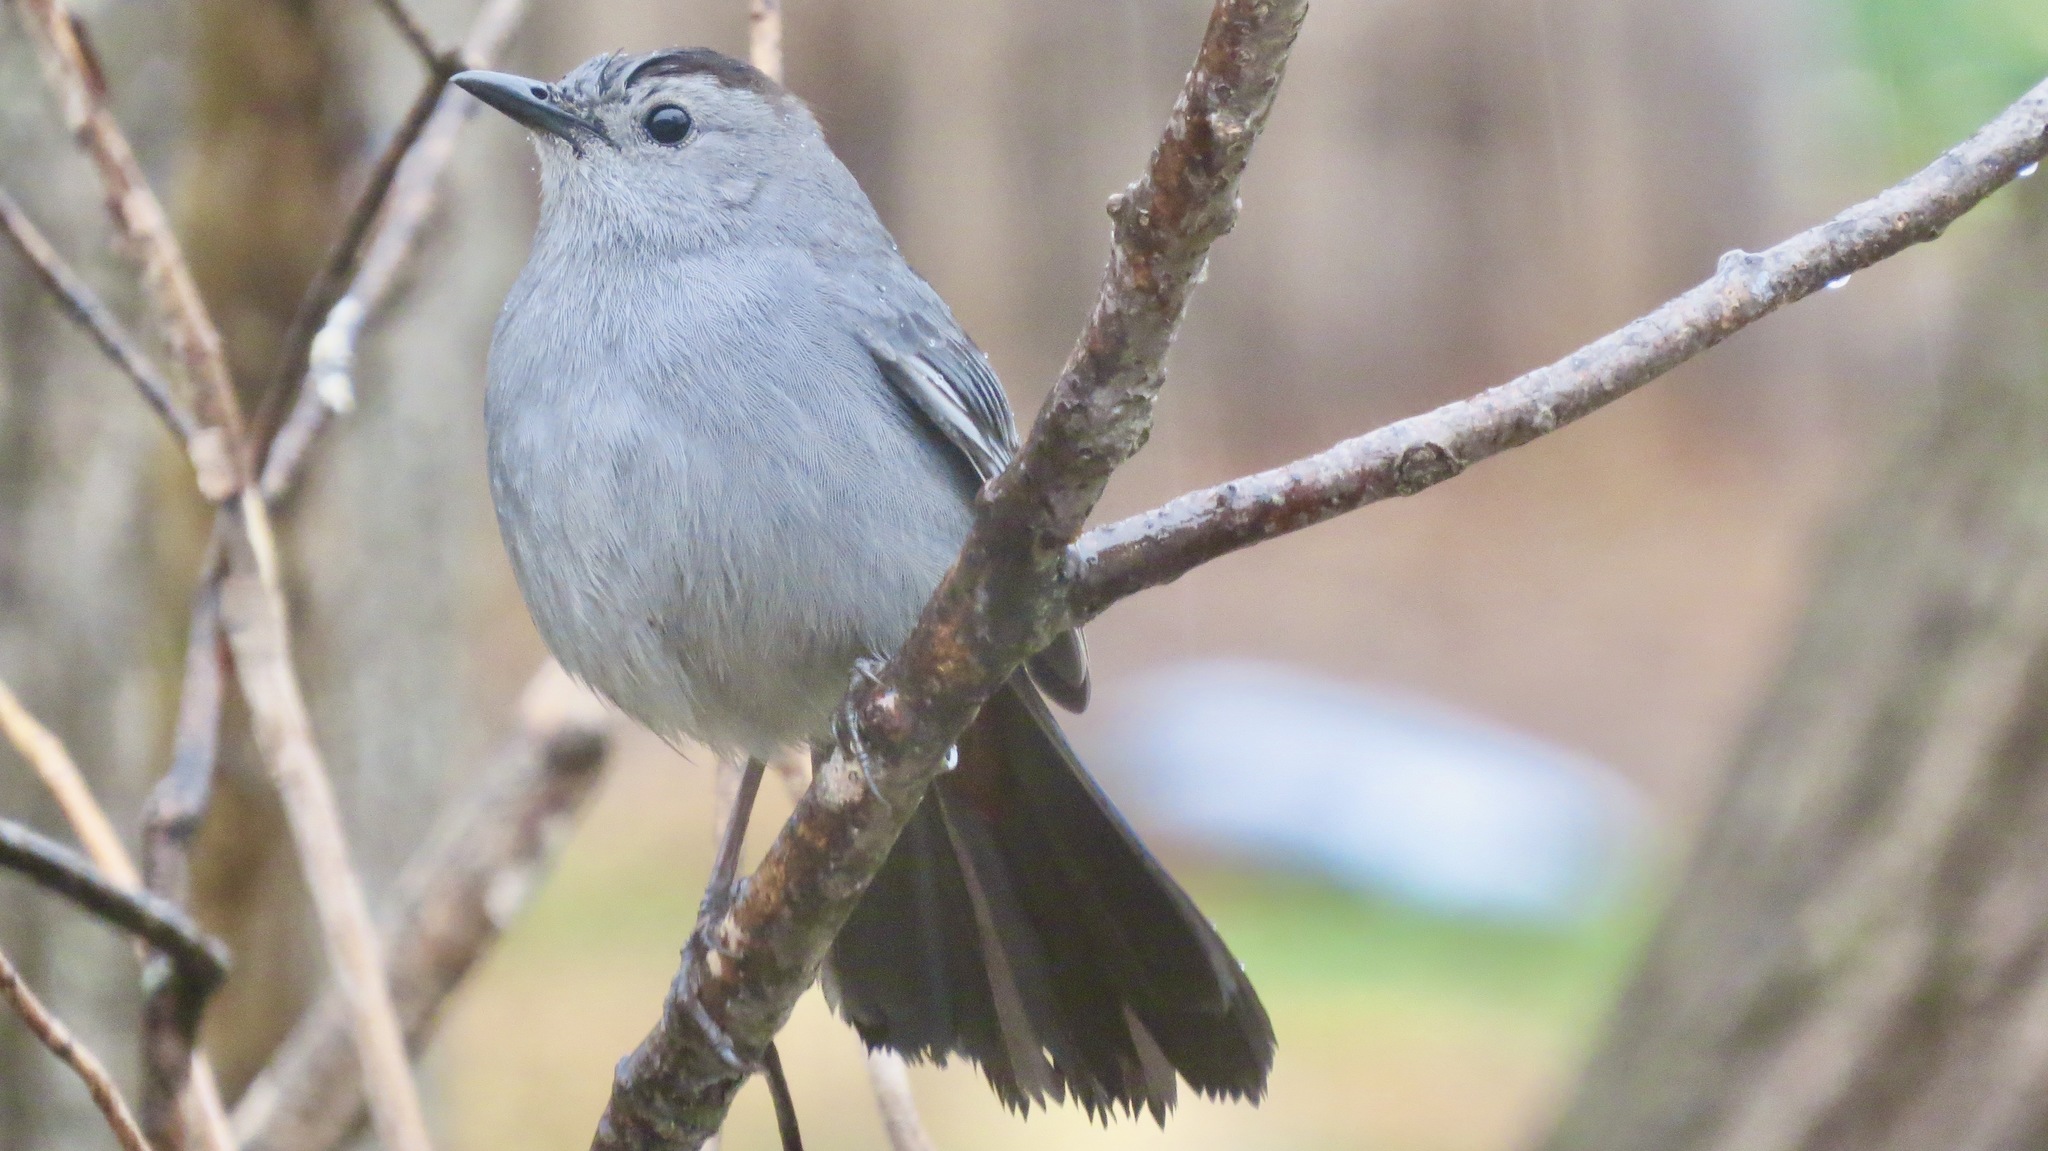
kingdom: Animalia
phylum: Chordata
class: Aves
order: Passeriformes
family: Mimidae
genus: Dumetella
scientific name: Dumetella carolinensis
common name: Gray catbird
